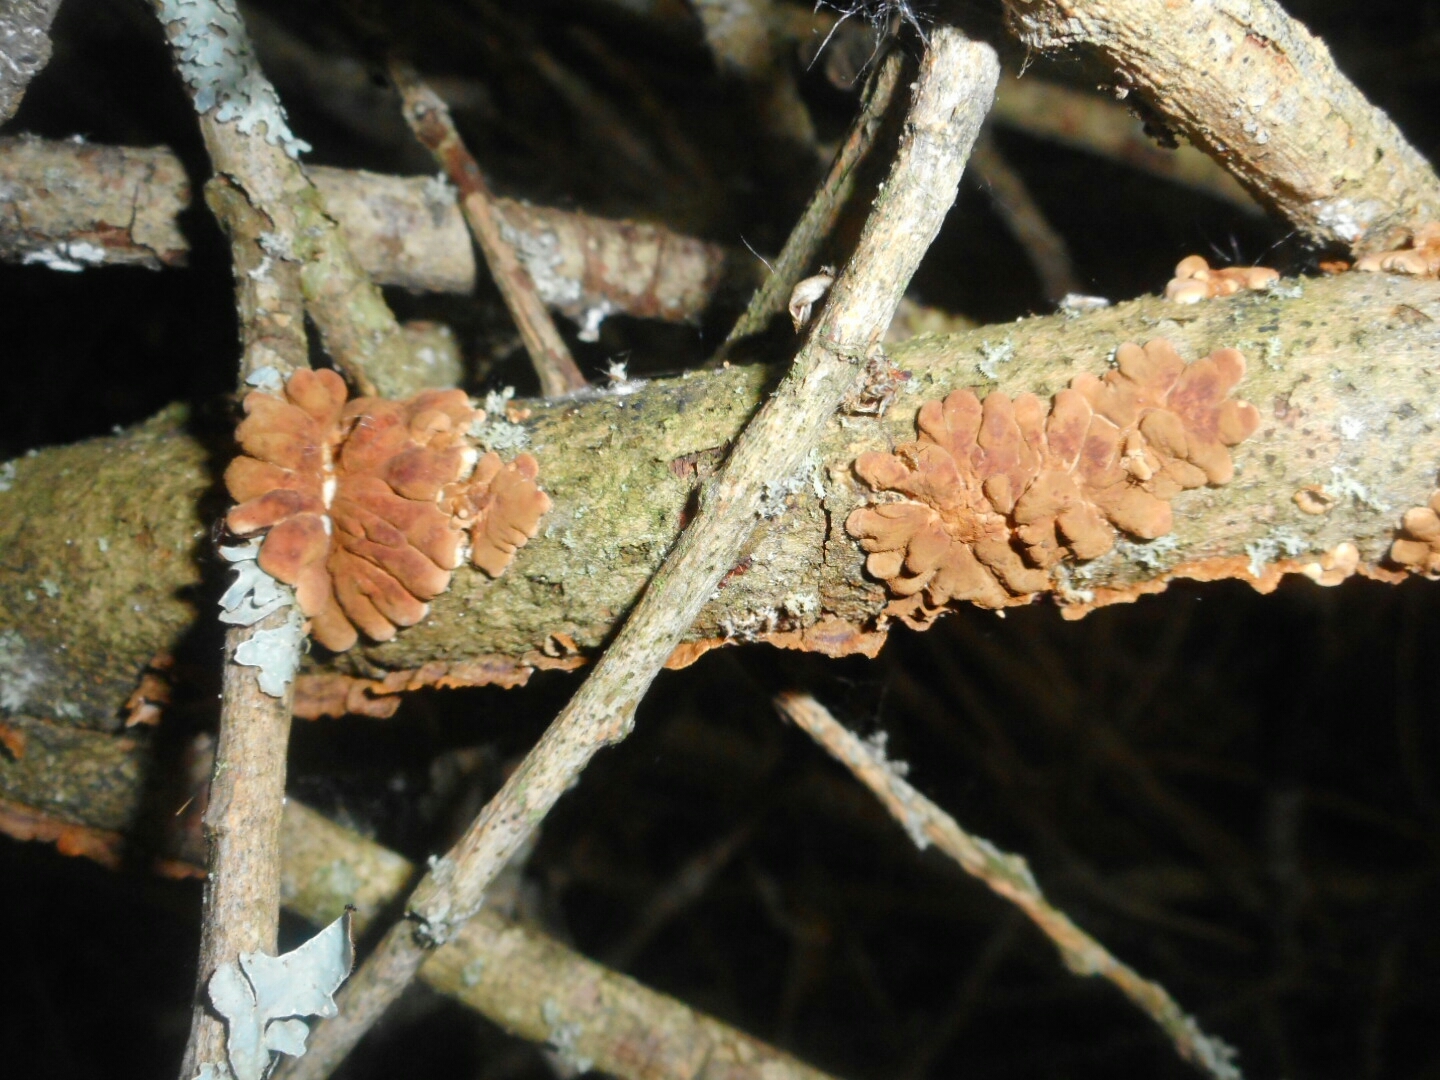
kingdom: Fungi
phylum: Ascomycota
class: Sordariomycetes
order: Hypocreales
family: Hypocreaceae
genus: Hypocreopsis
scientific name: Hypocreopsis lichenoides
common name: Willow gloves
